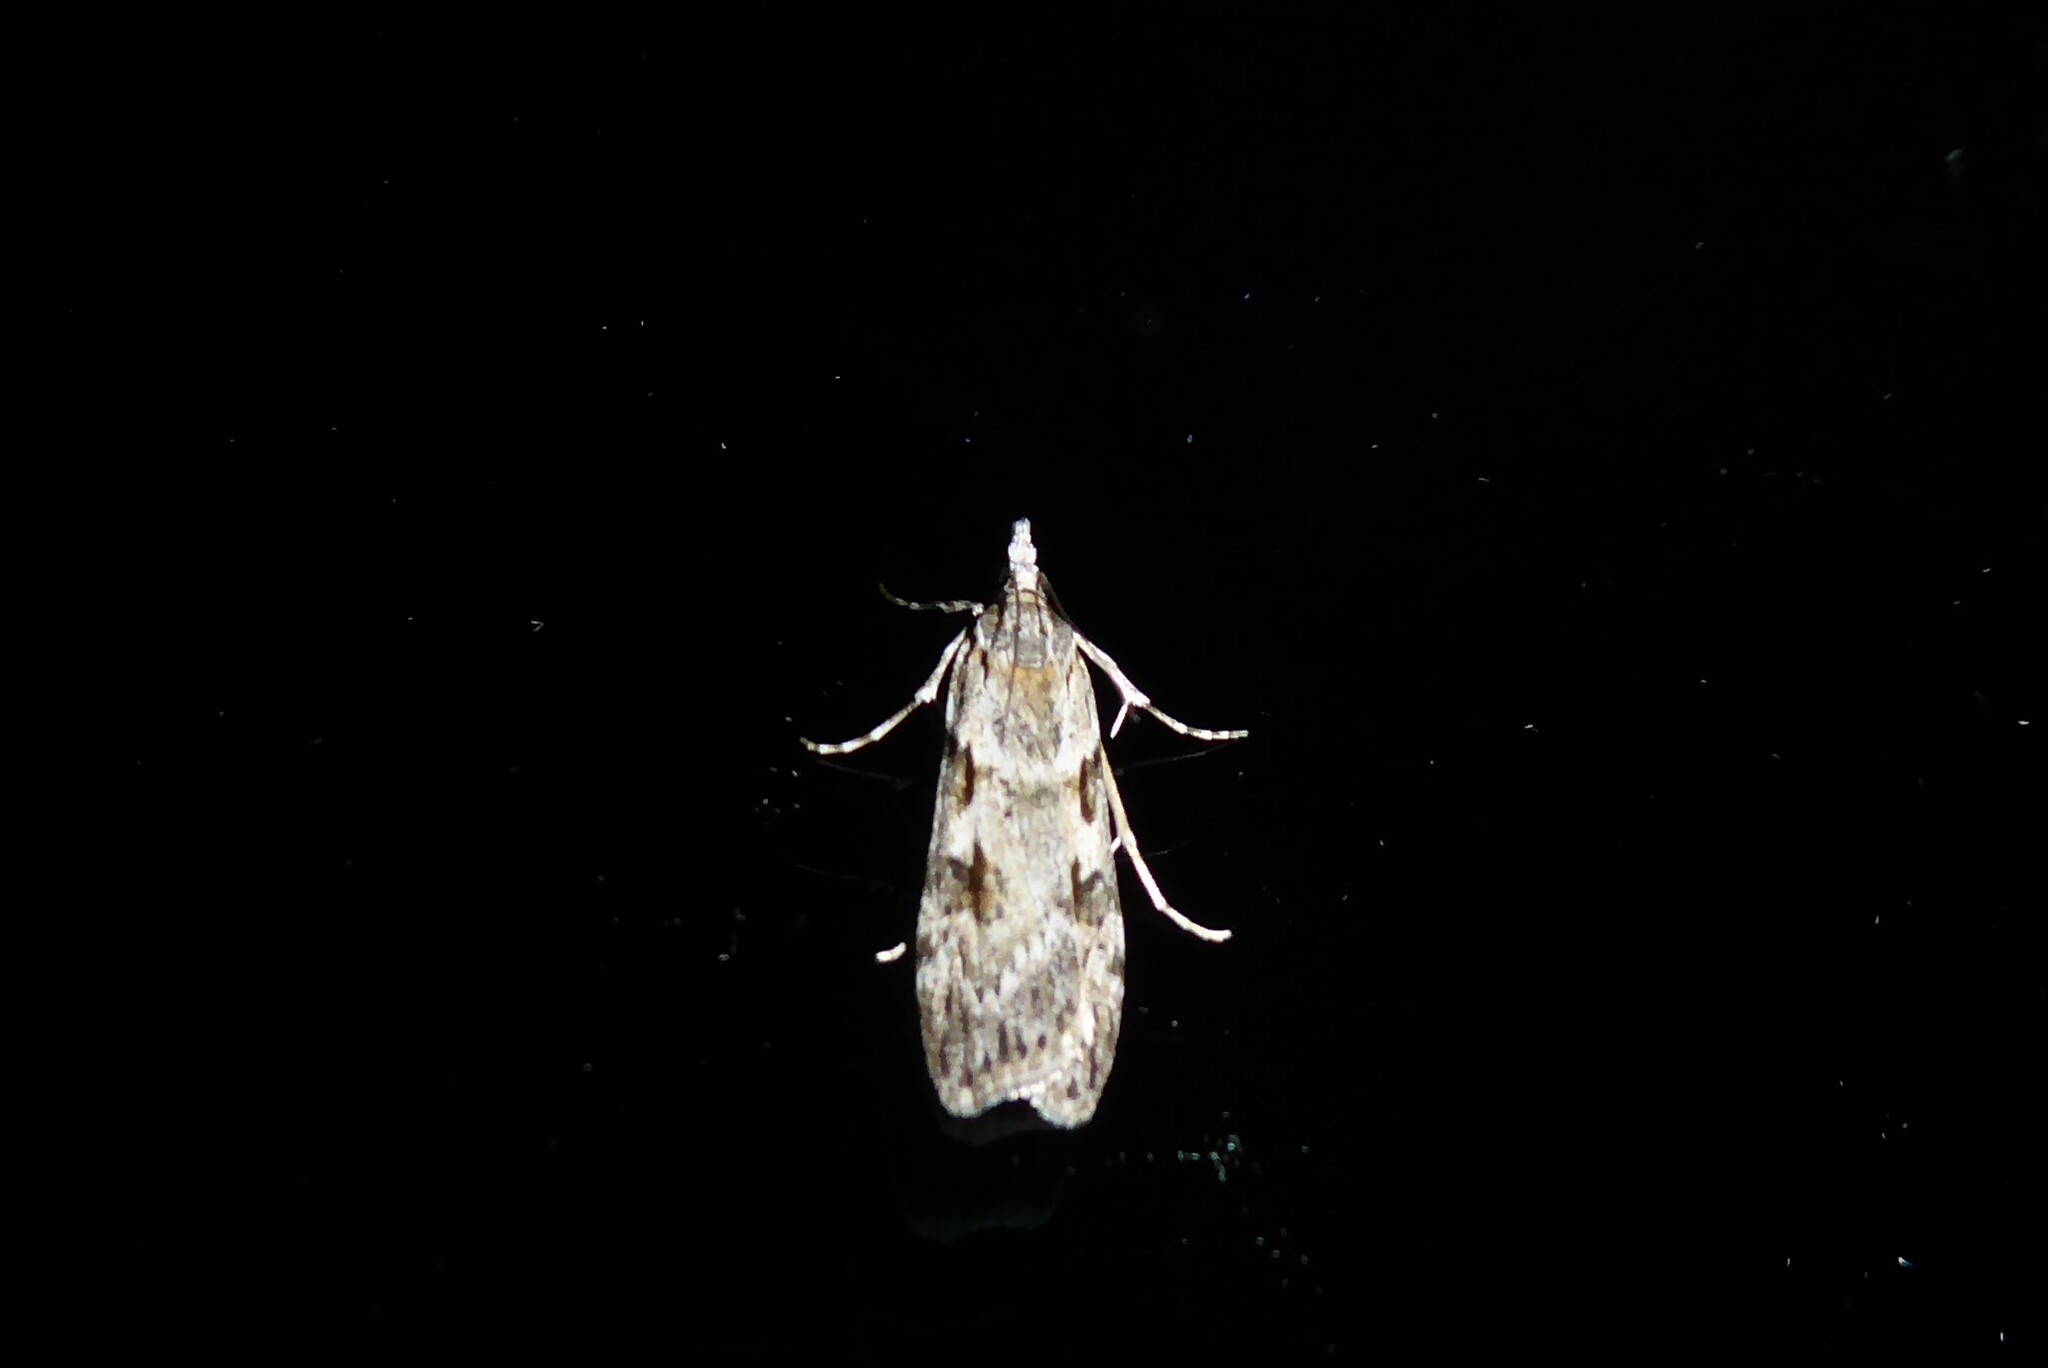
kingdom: Animalia
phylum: Arthropoda
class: Insecta
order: Lepidoptera
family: Crambidae
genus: Scoparia
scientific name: Scoparia halopis
